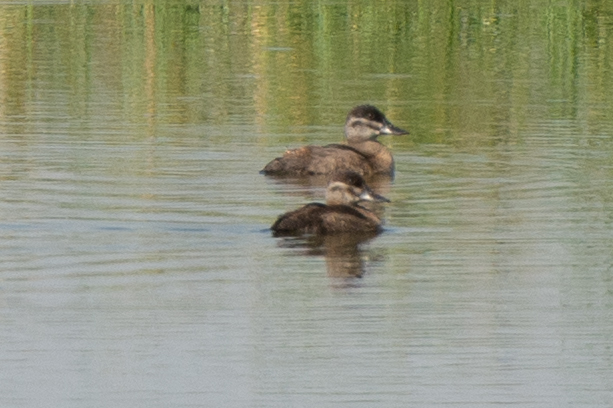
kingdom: Animalia
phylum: Chordata
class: Aves
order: Anseriformes
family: Anatidae
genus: Oxyura
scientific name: Oxyura jamaicensis
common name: Ruddy duck
